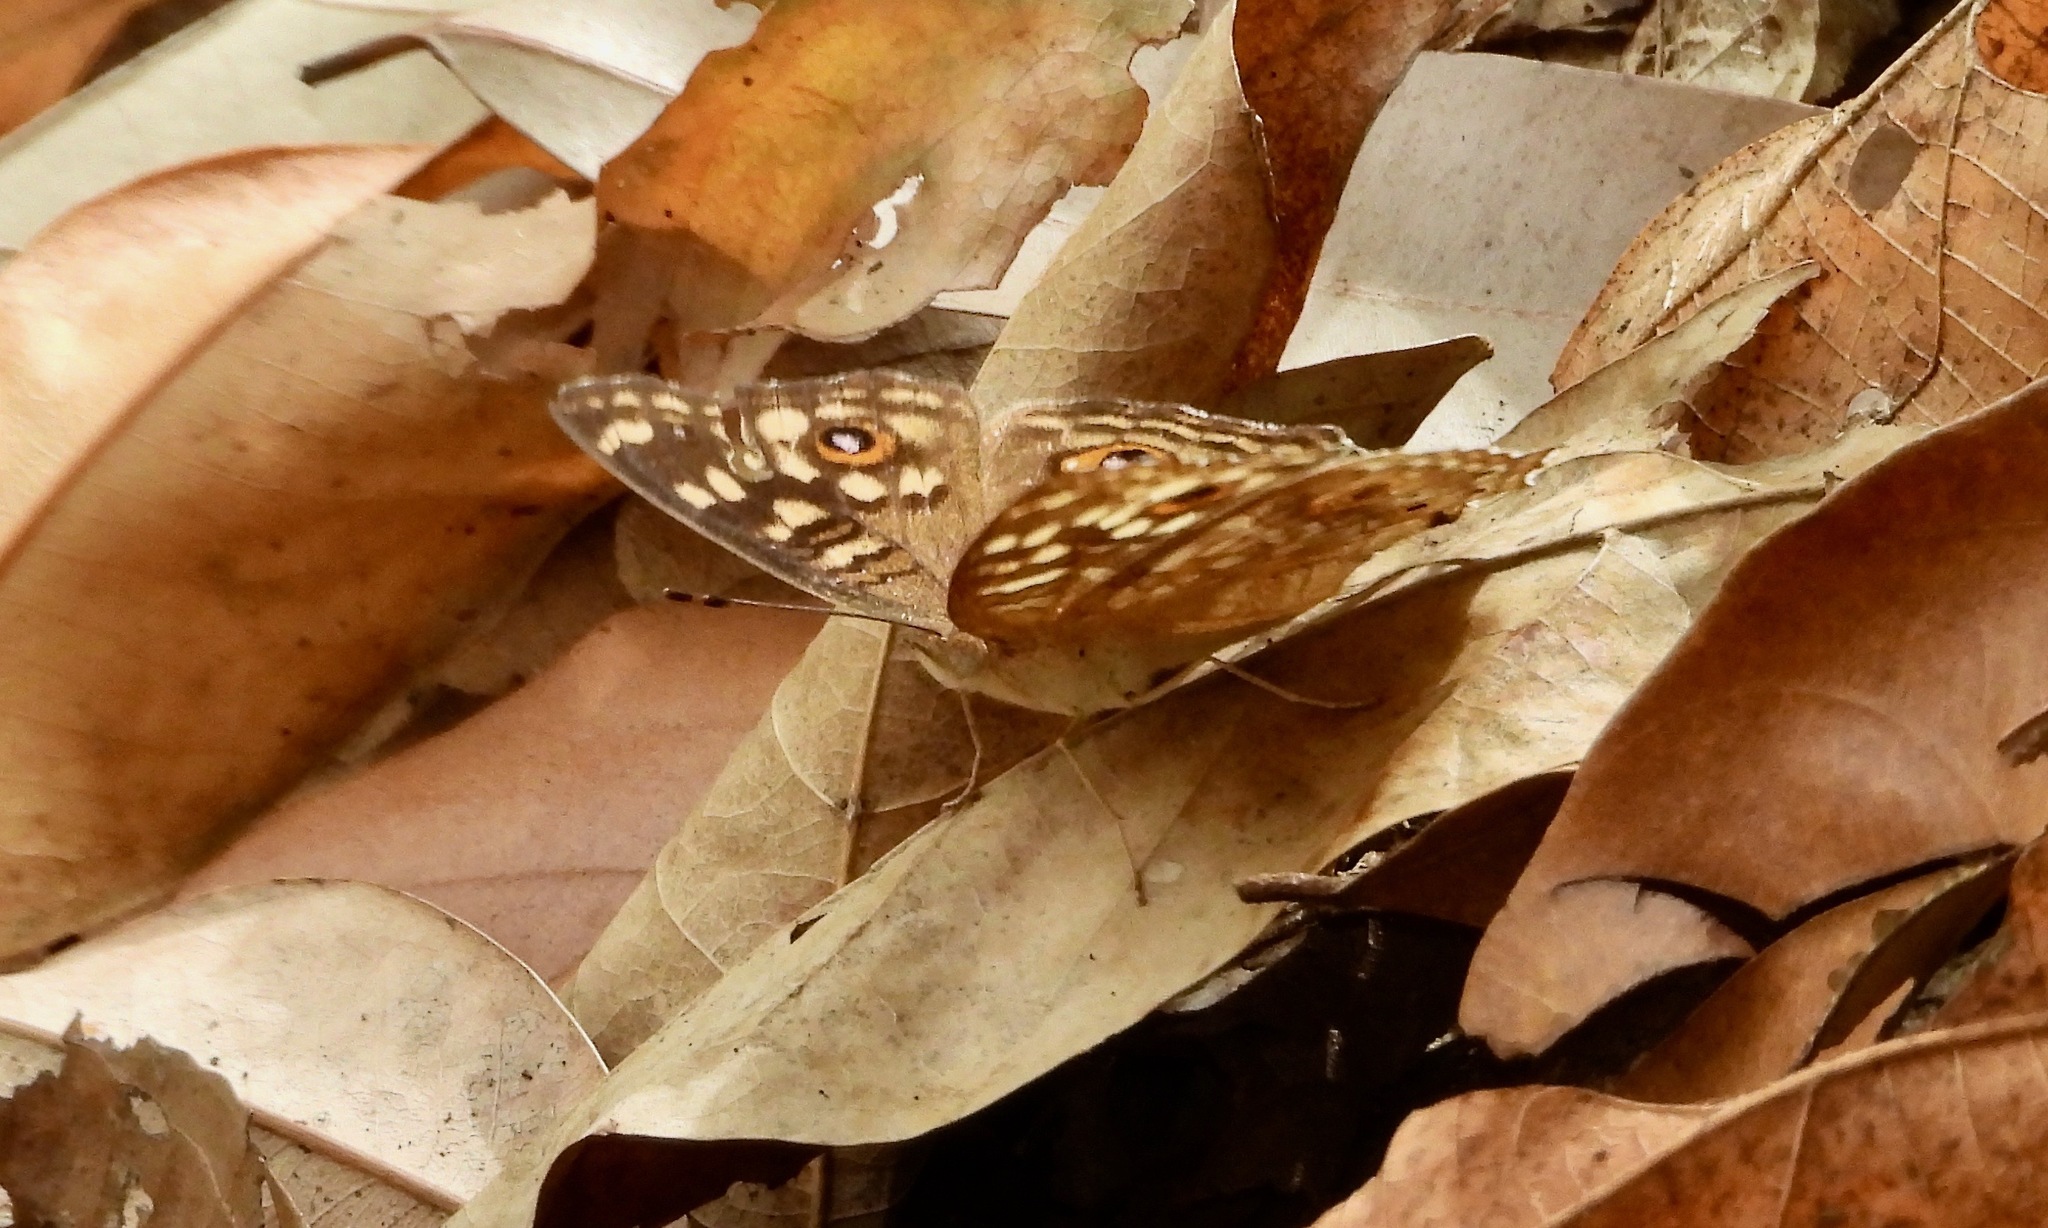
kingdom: Animalia
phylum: Arthropoda
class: Insecta
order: Lepidoptera
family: Nymphalidae
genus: Junonia
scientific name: Junonia lemonias
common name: Lemon pansy
